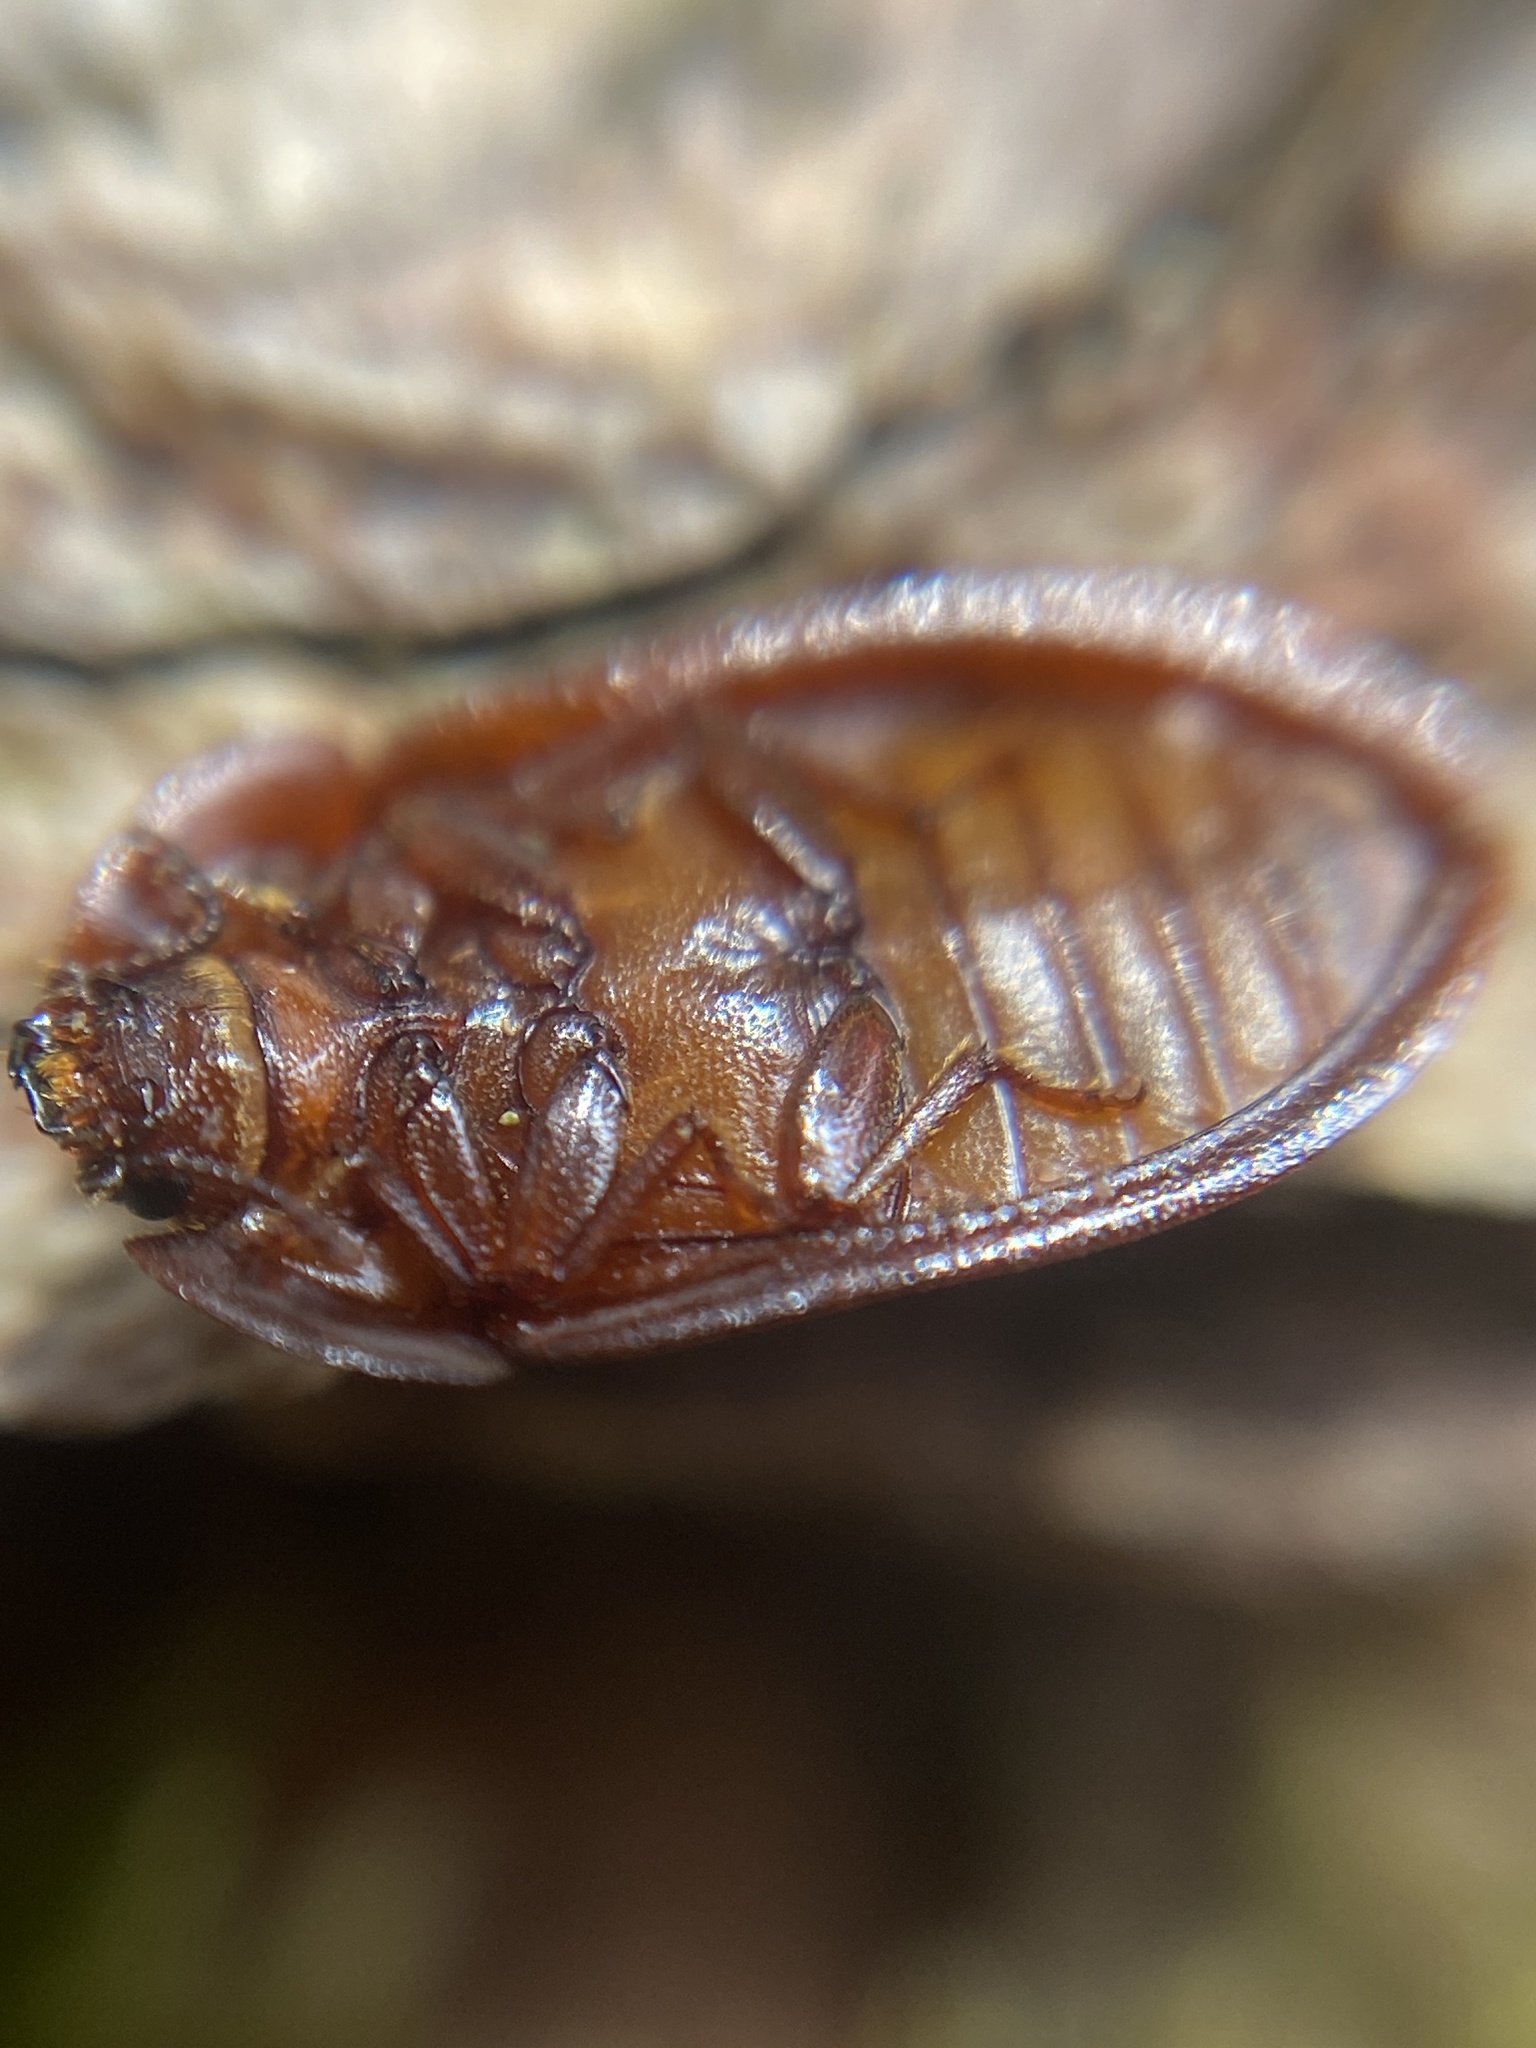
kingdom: Animalia
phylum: Arthropoda
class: Insecta
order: Coleoptera
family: Trogossitidae
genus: Peltis
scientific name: Peltis ferruginea
